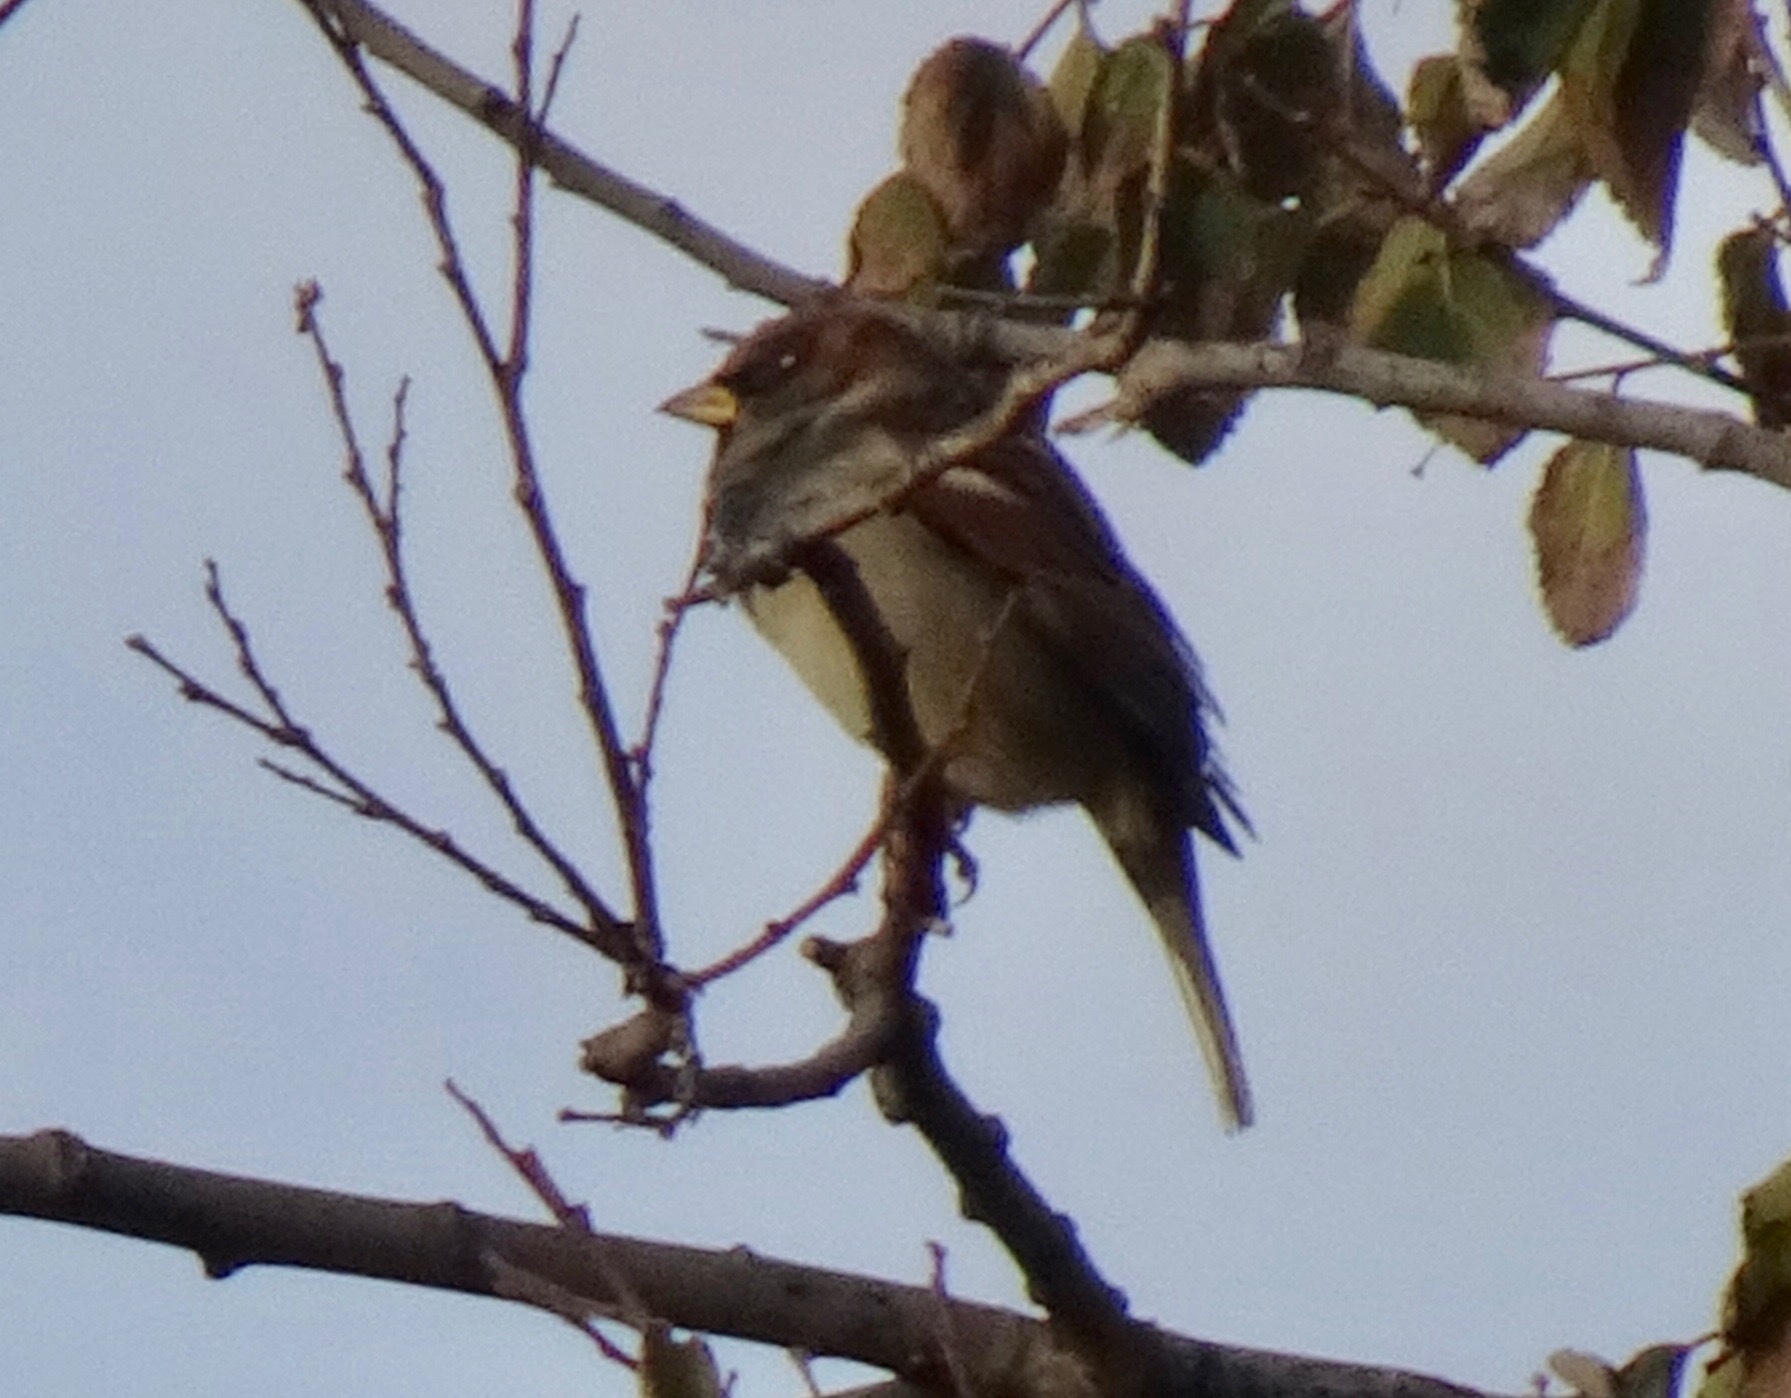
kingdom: Animalia
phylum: Chordata
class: Aves
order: Passeriformes
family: Passeridae
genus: Passer
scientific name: Passer domesticus
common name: House sparrow
